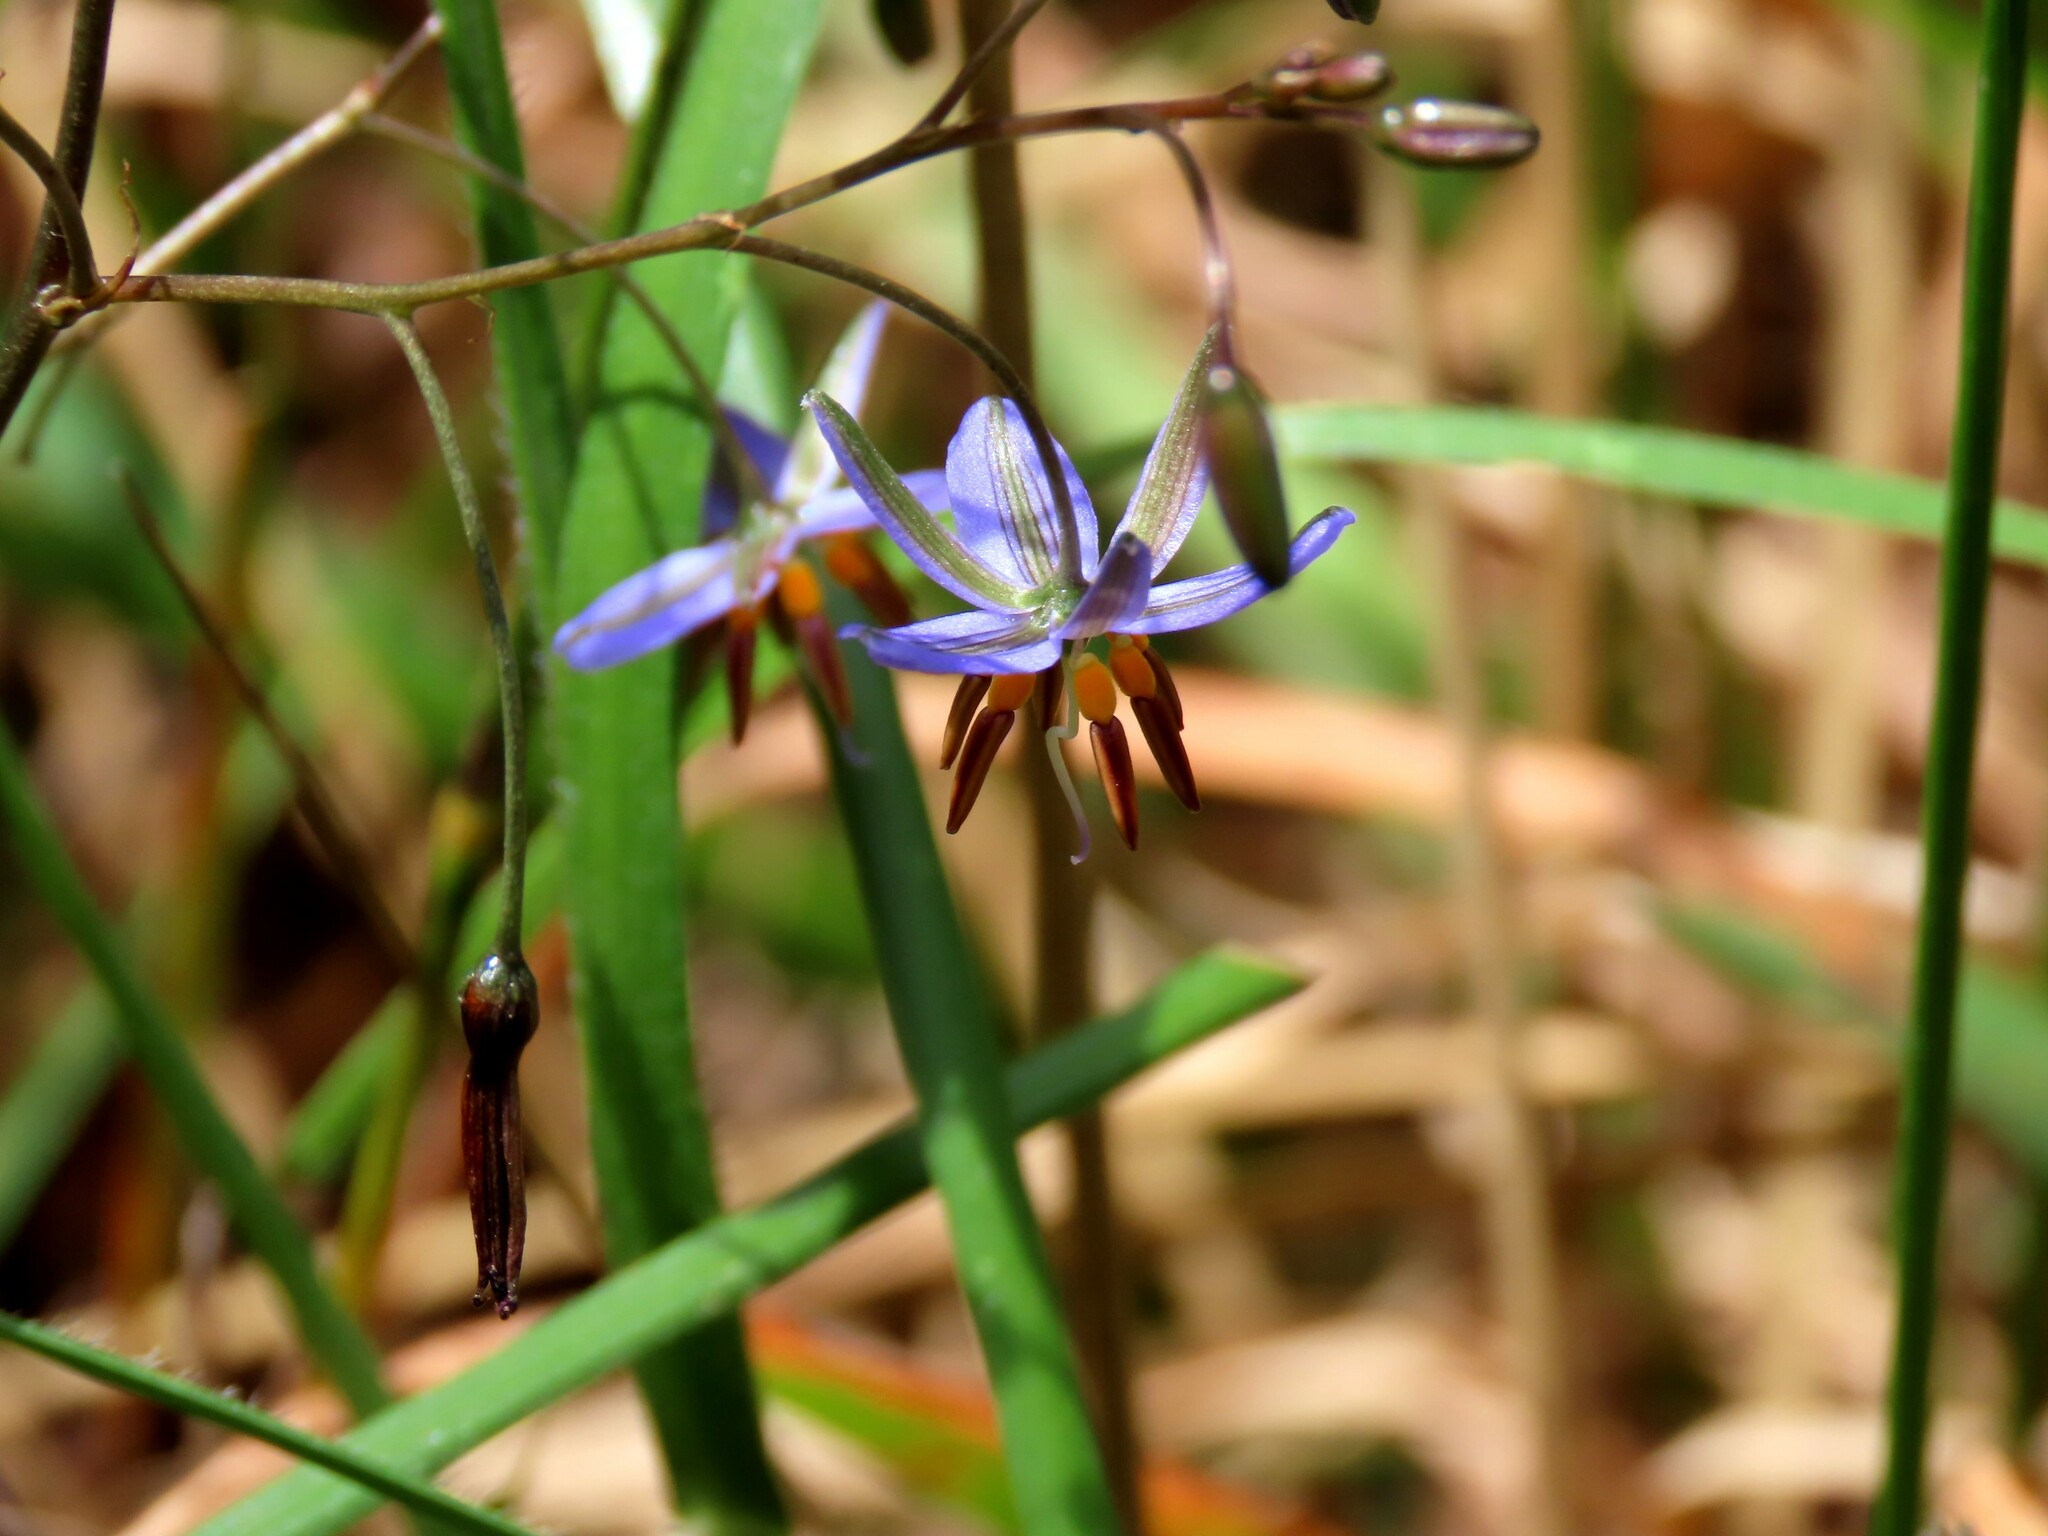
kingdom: Plantae
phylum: Tracheophyta
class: Liliopsida
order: Asparagales
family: Asphodelaceae
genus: Dianella
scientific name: Dianella revoluta
